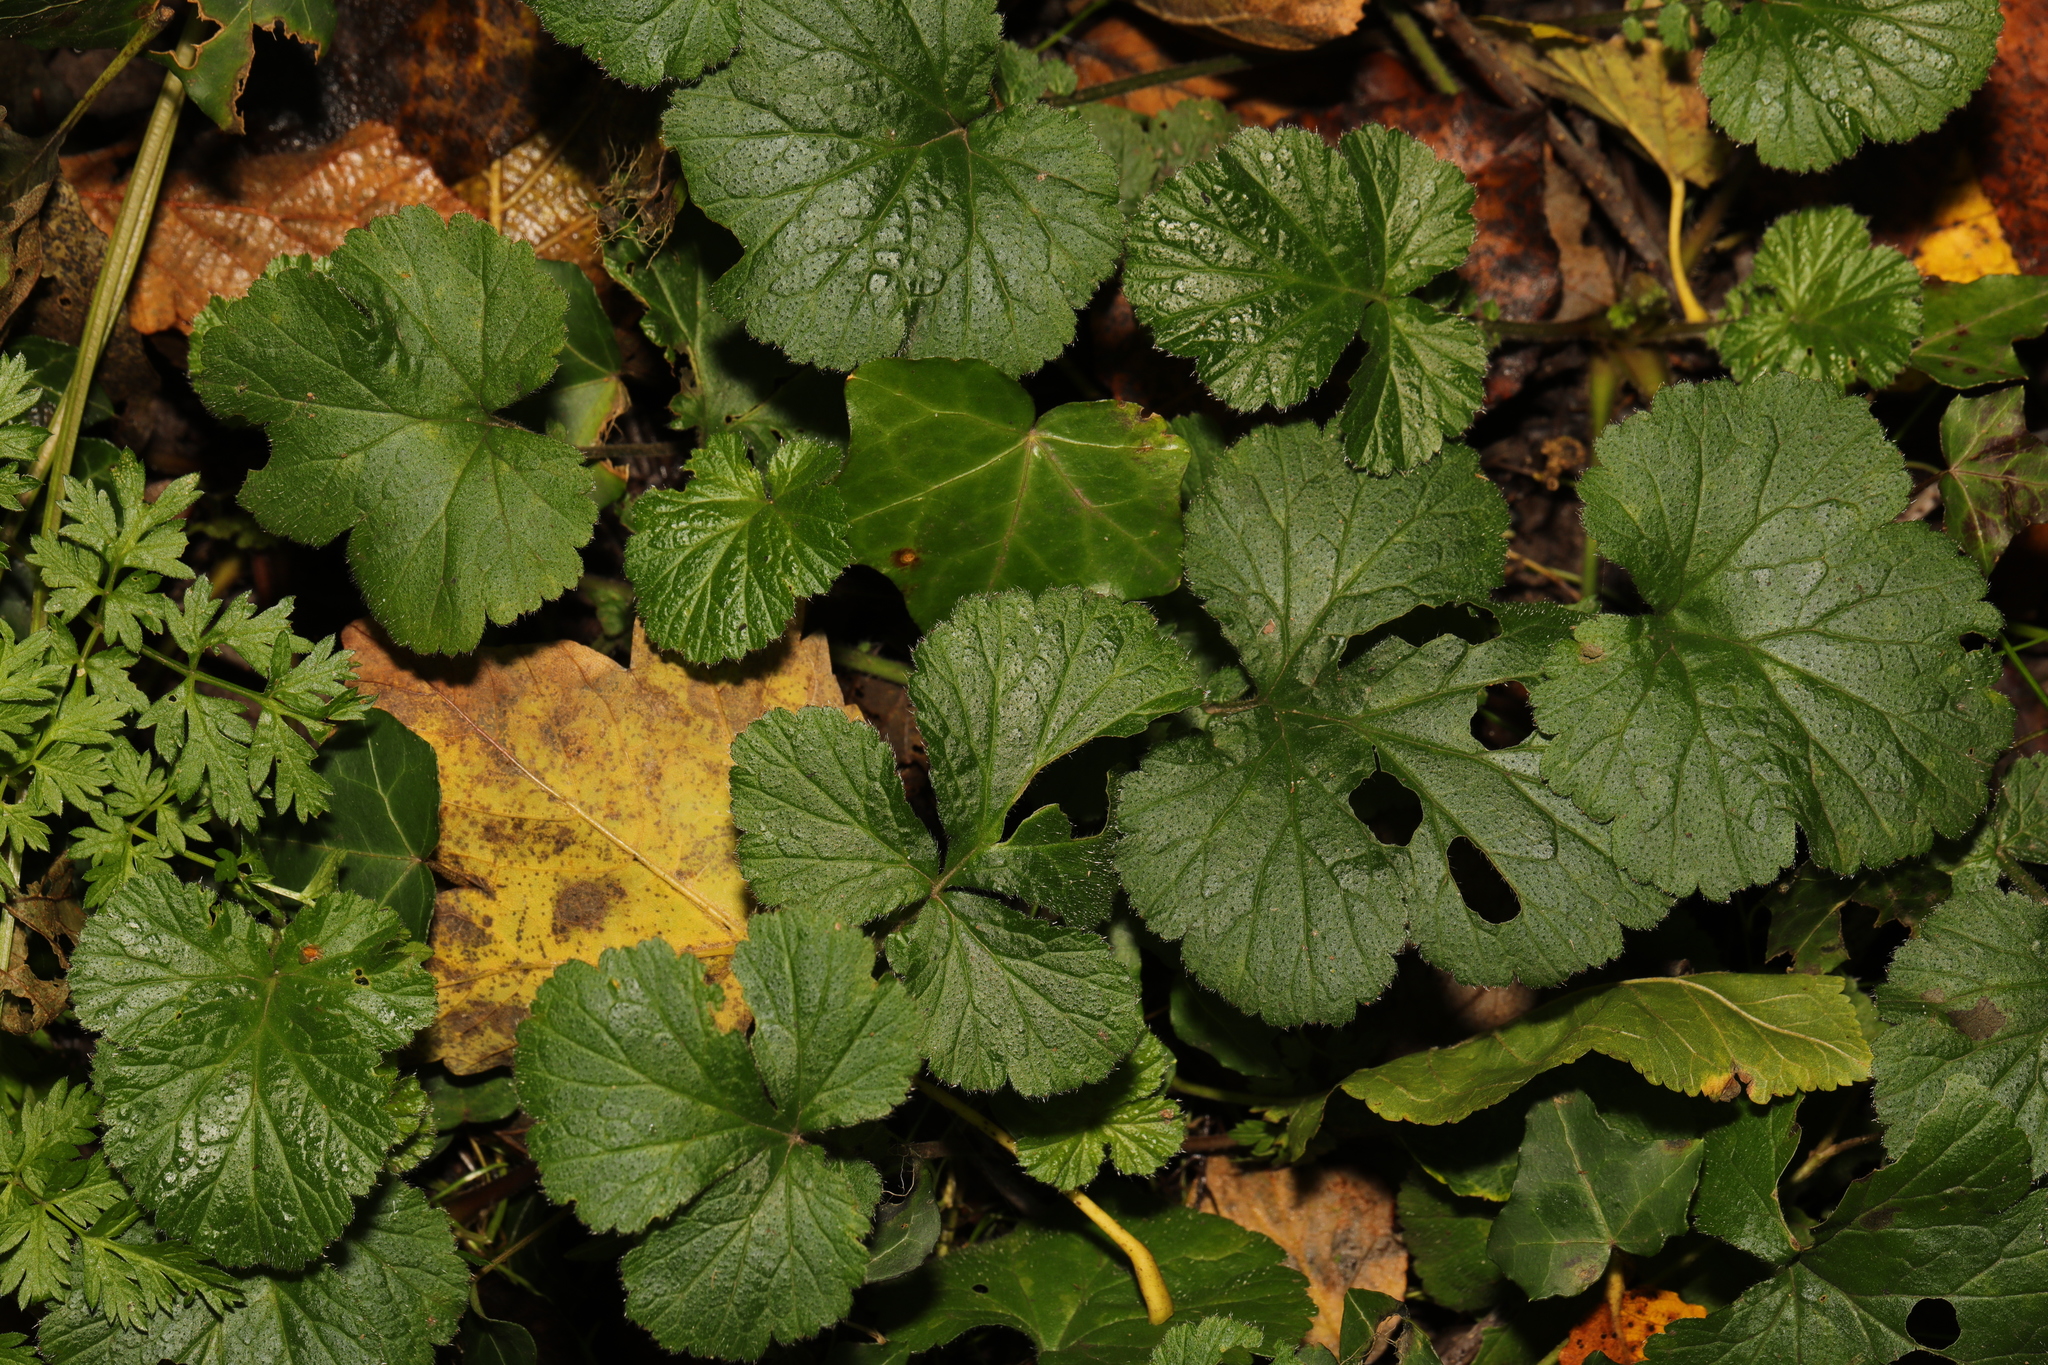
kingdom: Plantae
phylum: Tracheophyta
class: Magnoliopsida
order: Rosales
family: Rosaceae
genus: Geum
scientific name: Geum urbanum
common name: Wood avens
